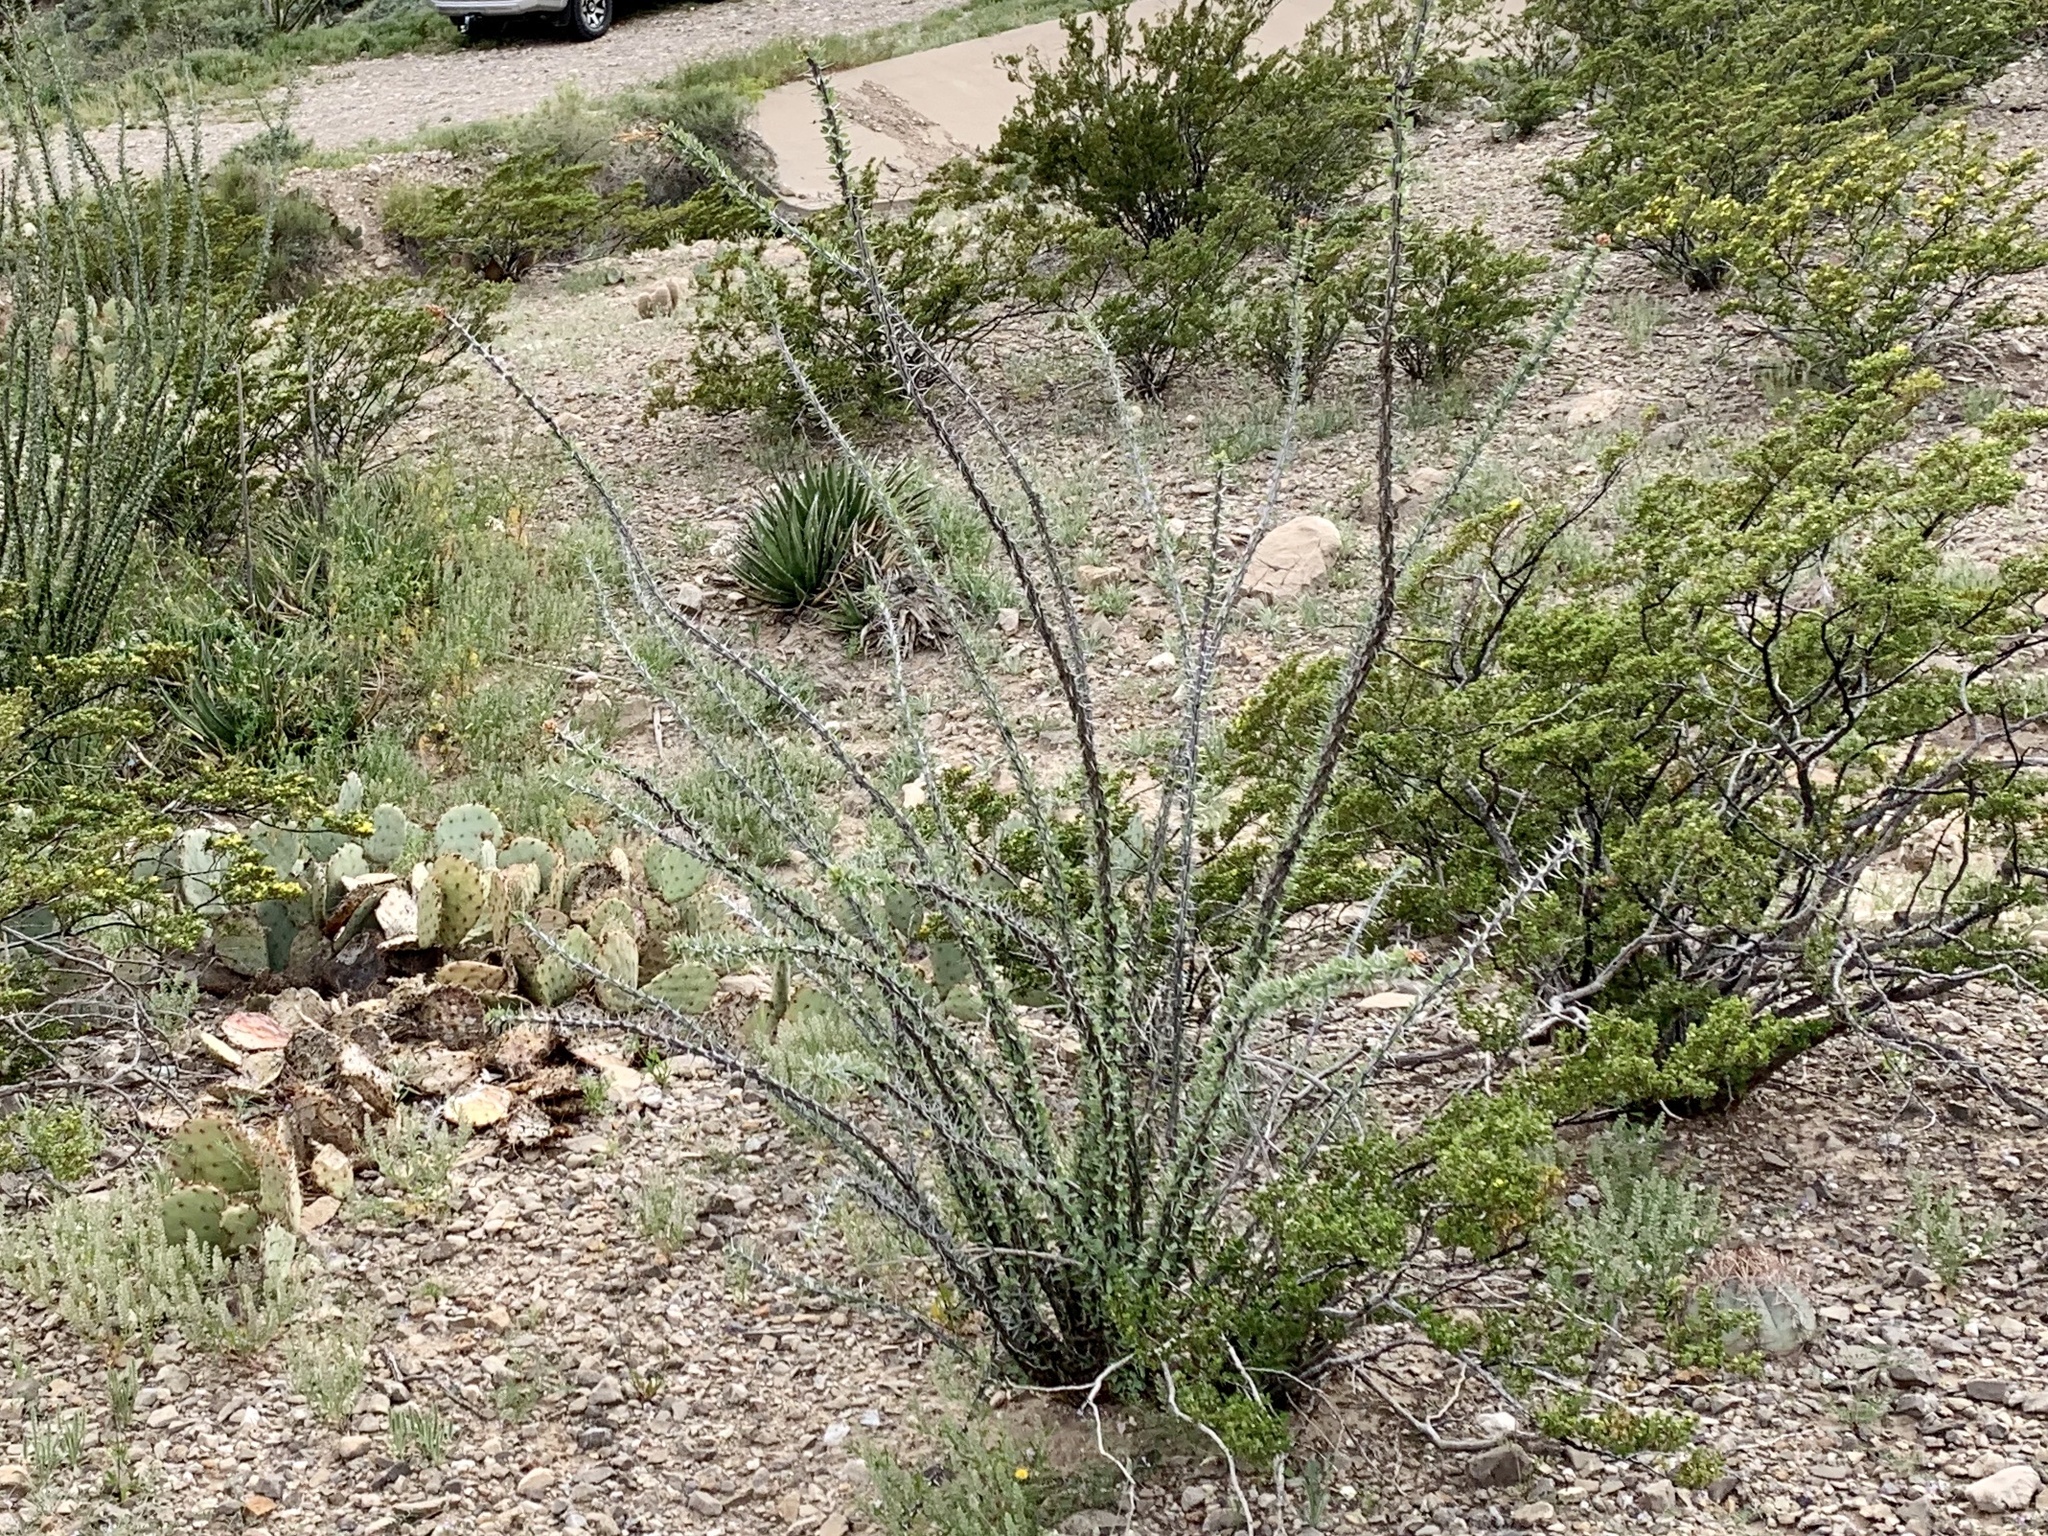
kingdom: Plantae
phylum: Tracheophyta
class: Magnoliopsida
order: Ericales
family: Fouquieriaceae
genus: Fouquieria
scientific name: Fouquieria splendens
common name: Vine-cactus
